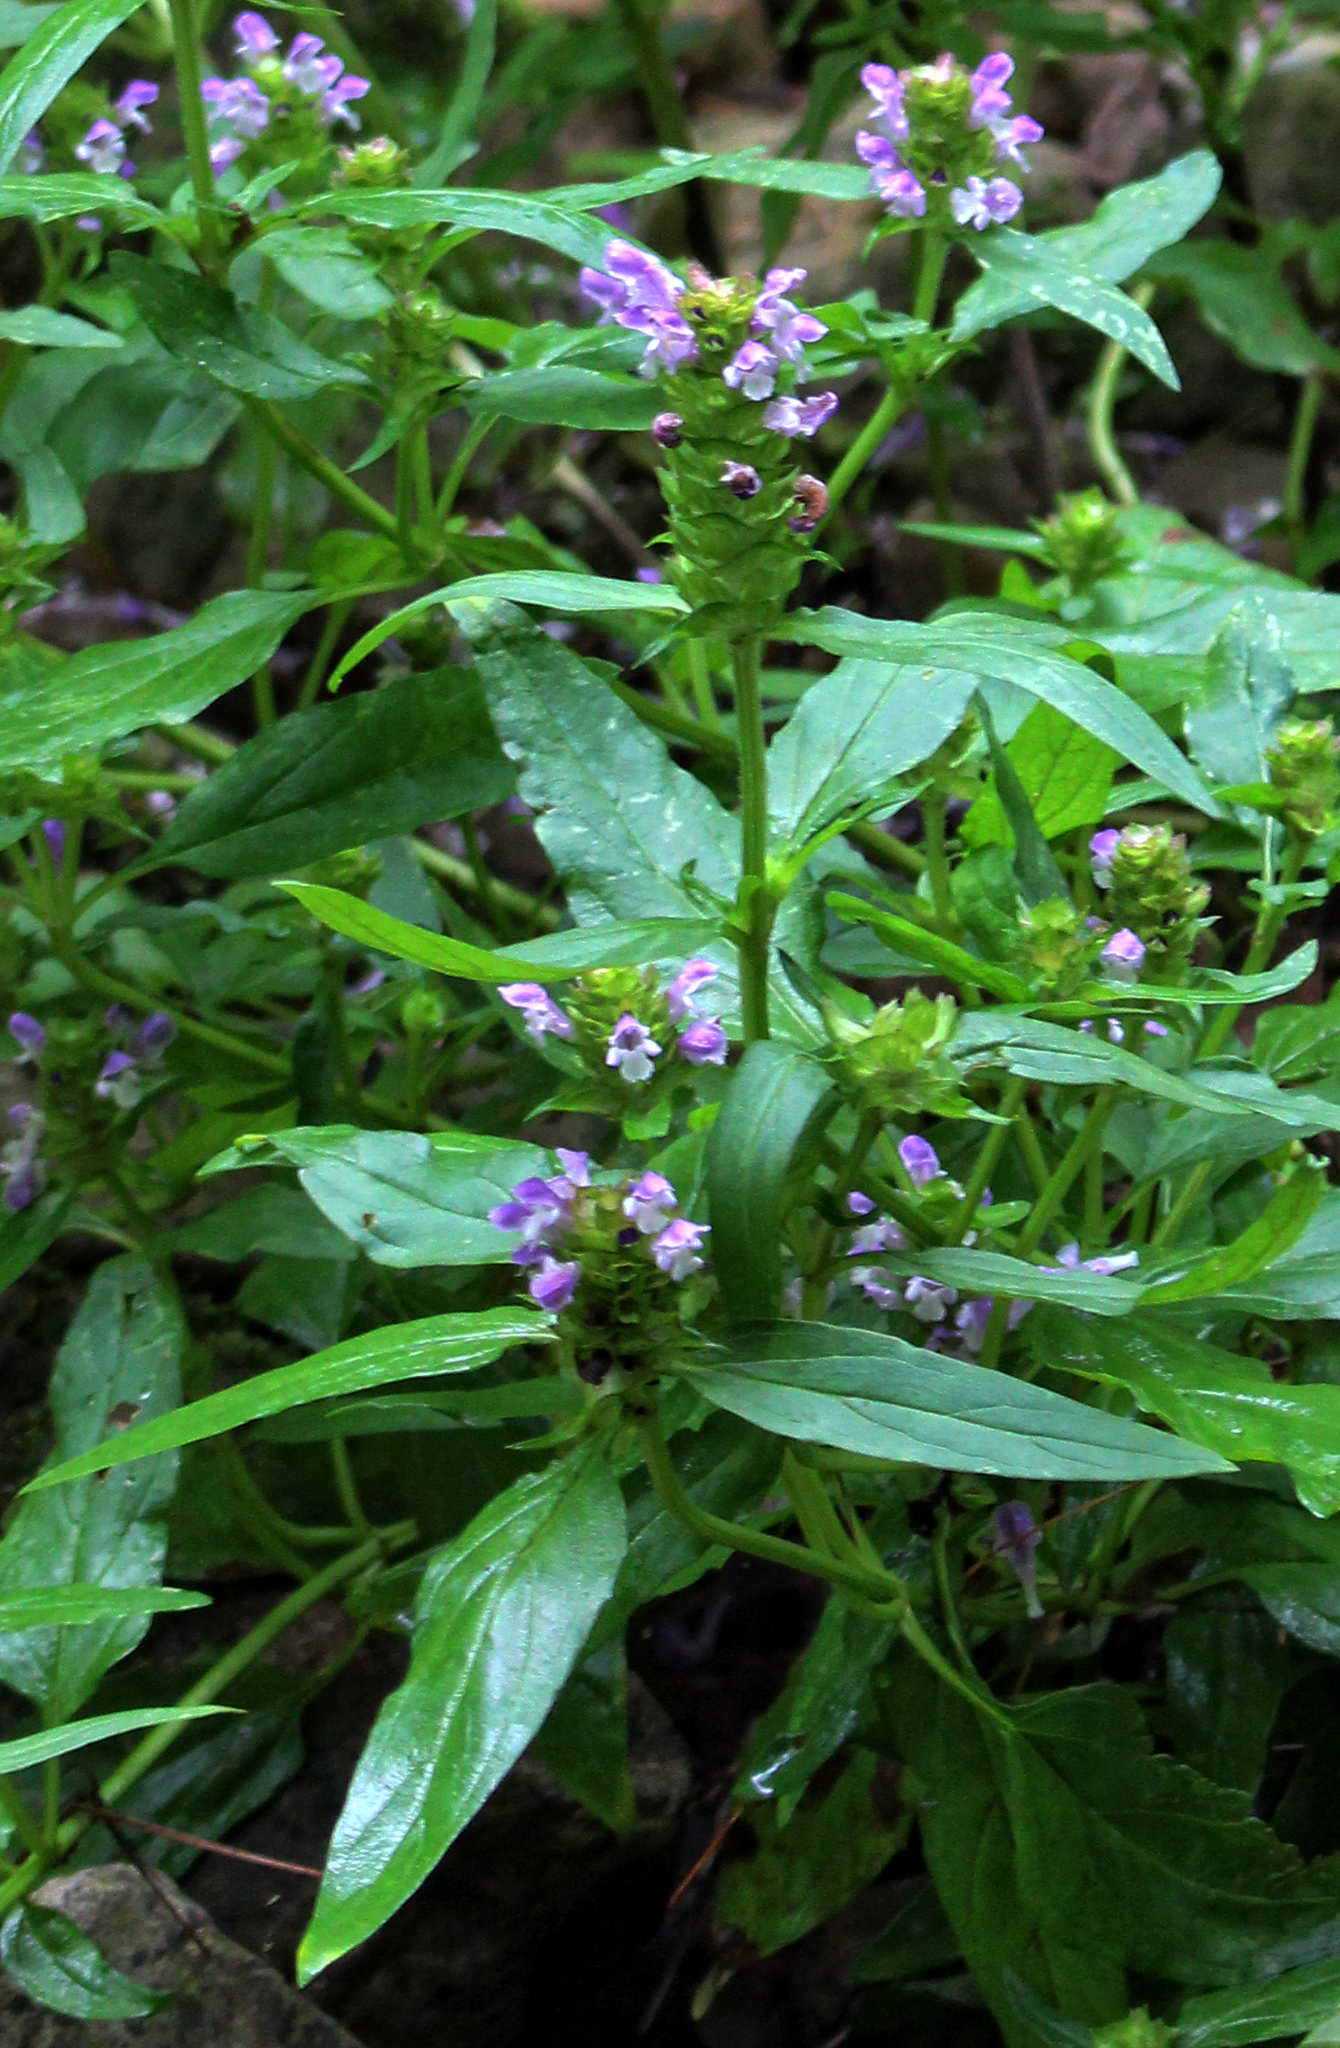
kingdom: Plantae
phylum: Tracheophyta
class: Magnoliopsida
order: Lamiales
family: Lamiaceae
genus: Prunella
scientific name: Prunella vulgaris
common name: Heal-all
